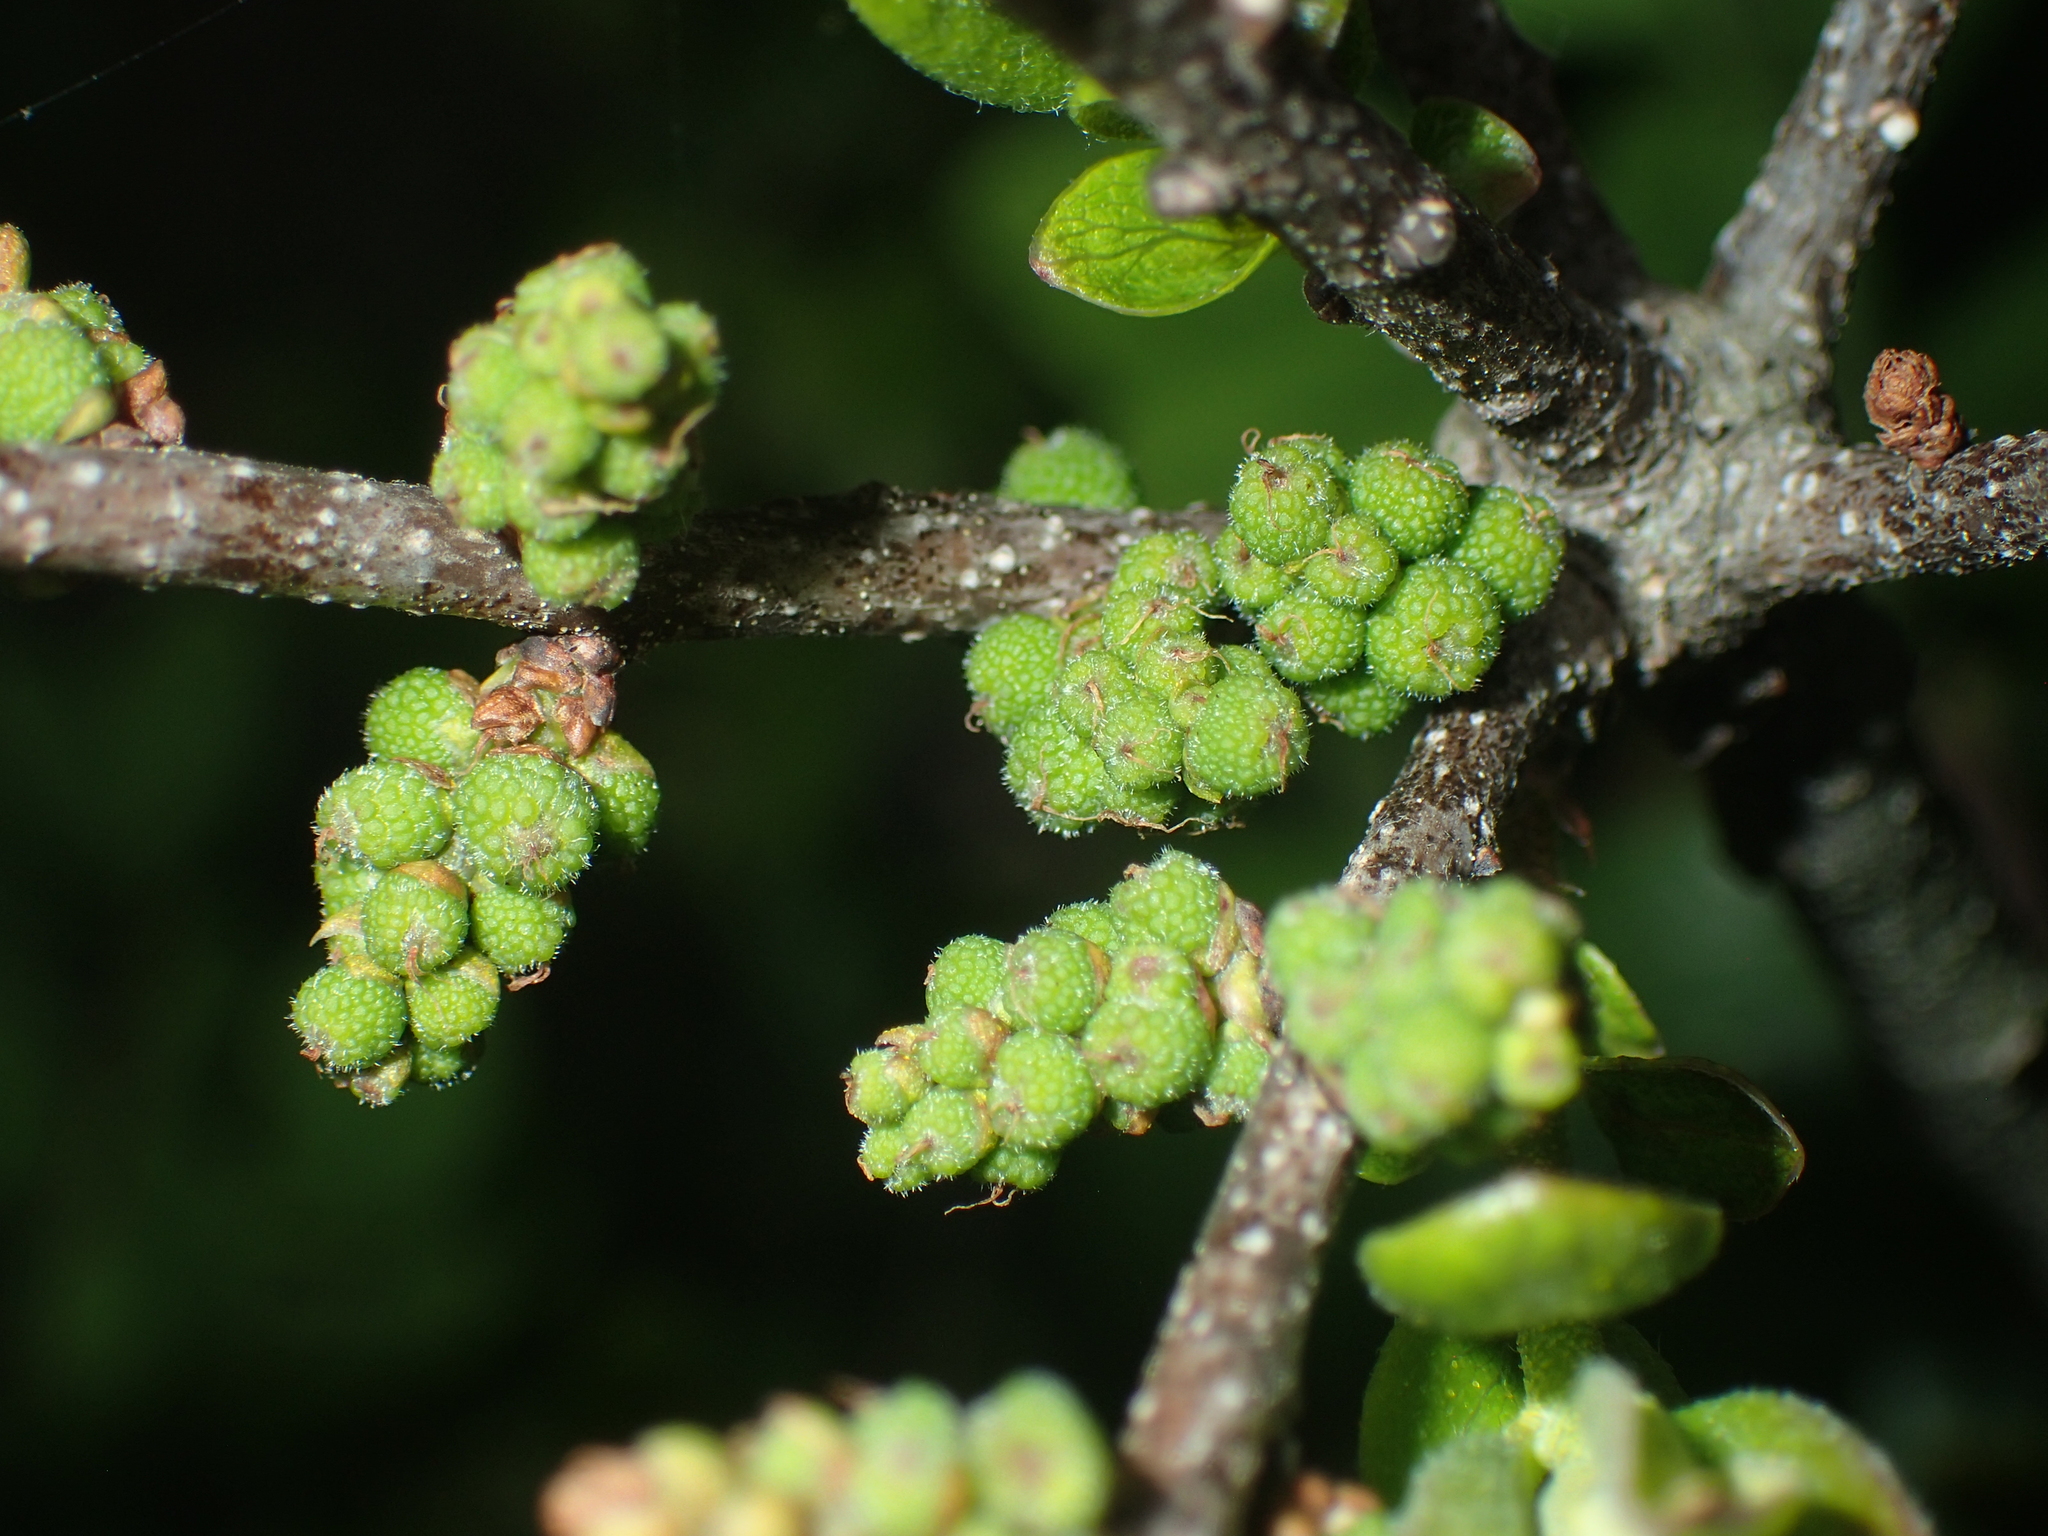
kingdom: Plantae
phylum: Tracheophyta
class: Magnoliopsida
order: Fagales
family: Myricaceae
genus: Morella
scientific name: Morella pensylvanica
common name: Northern bayberry
